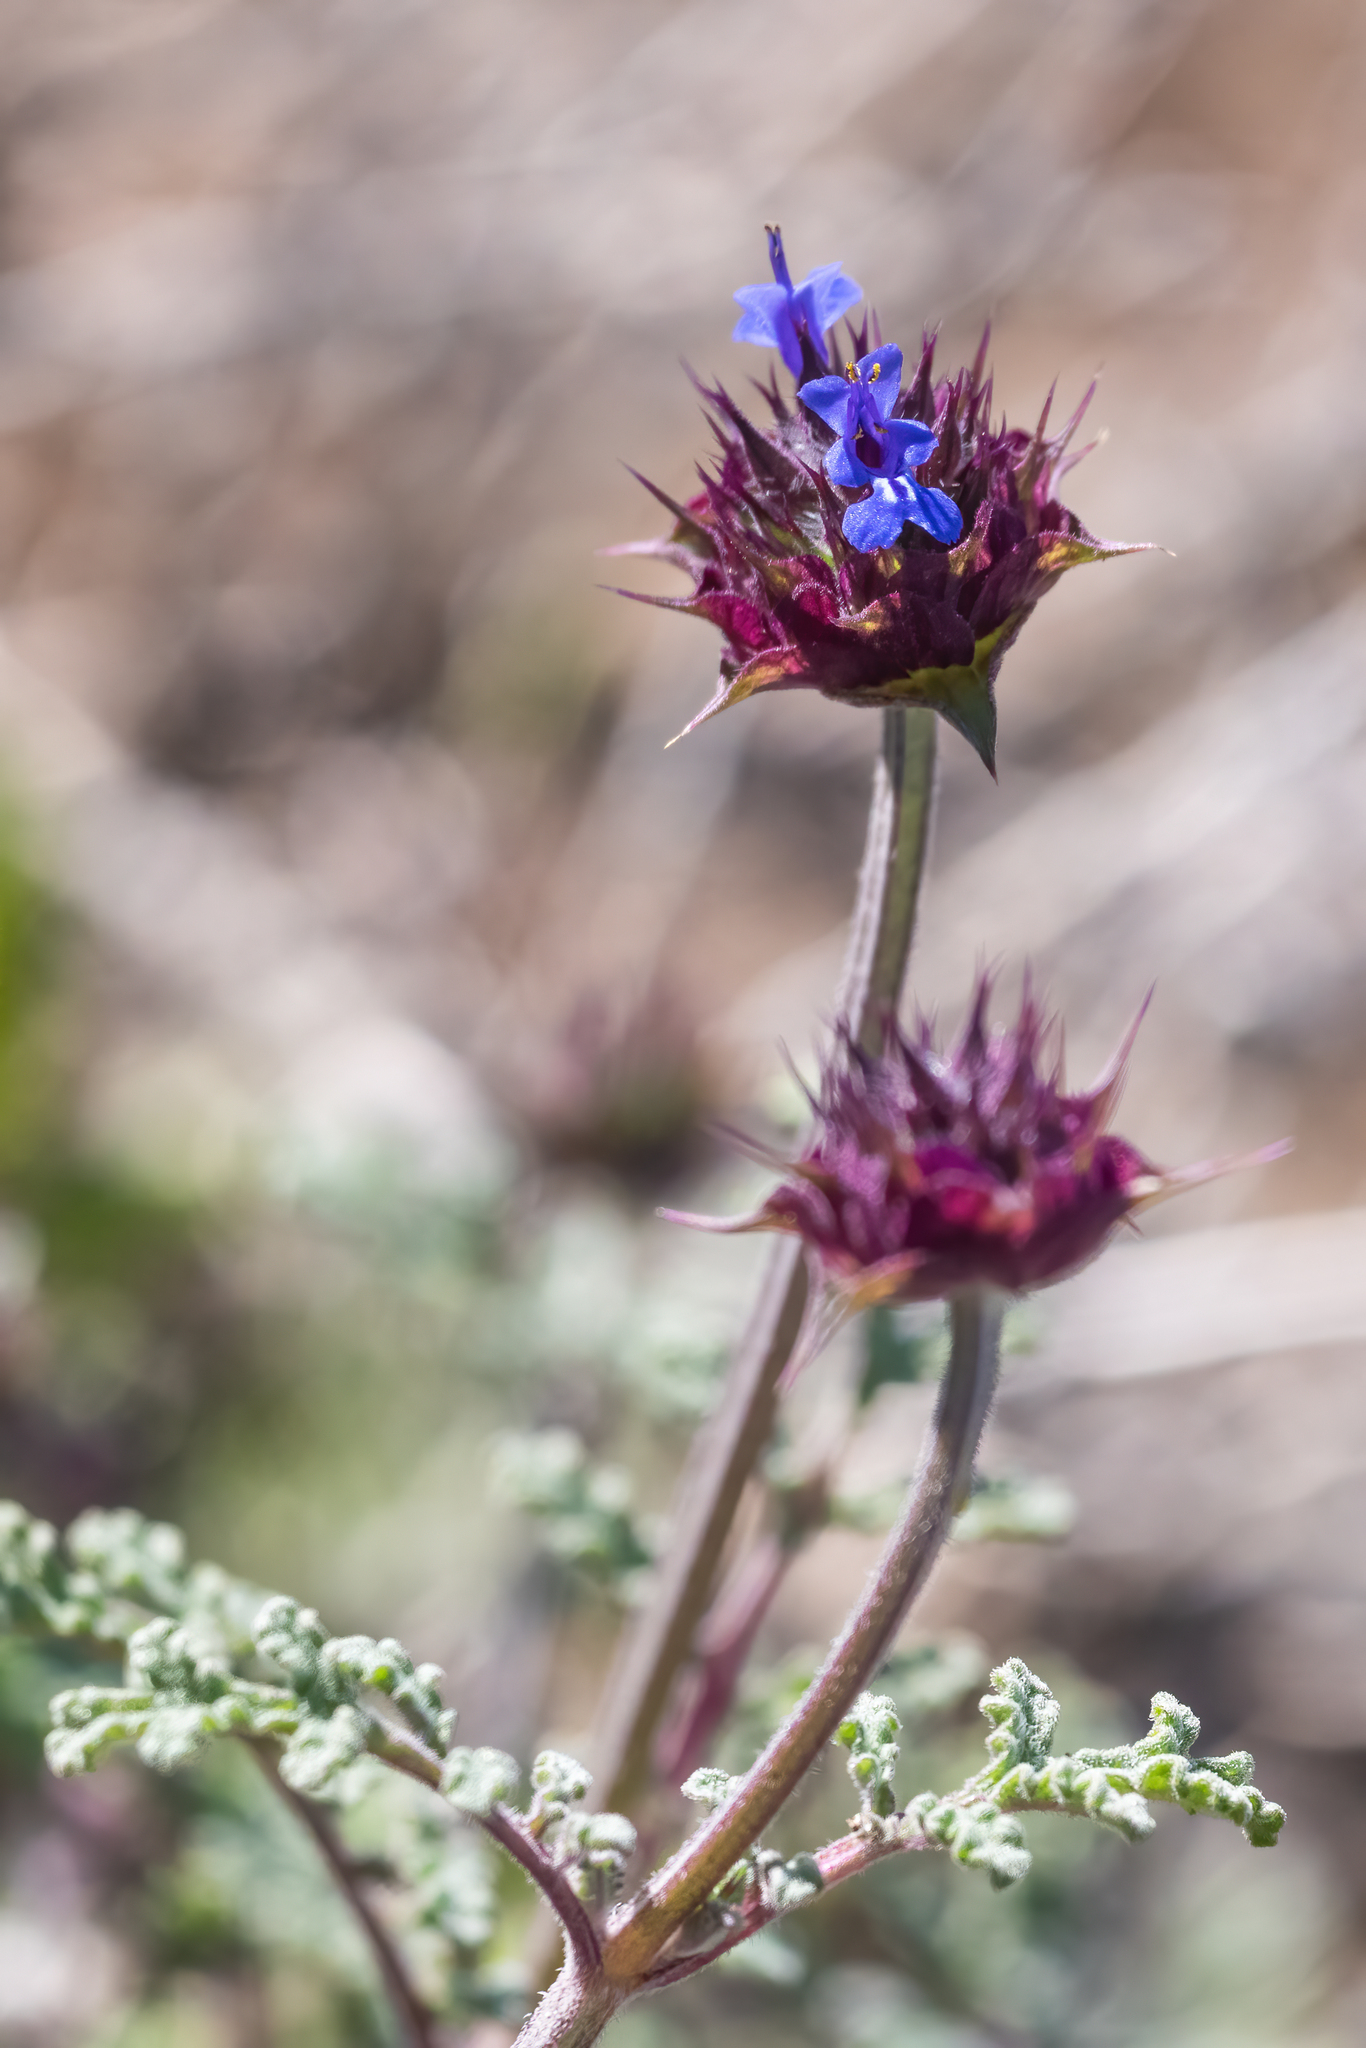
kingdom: Plantae
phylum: Tracheophyta
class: Magnoliopsida
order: Lamiales
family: Lamiaceae
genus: Salvia
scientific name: Salvia columbariae
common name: Chia
